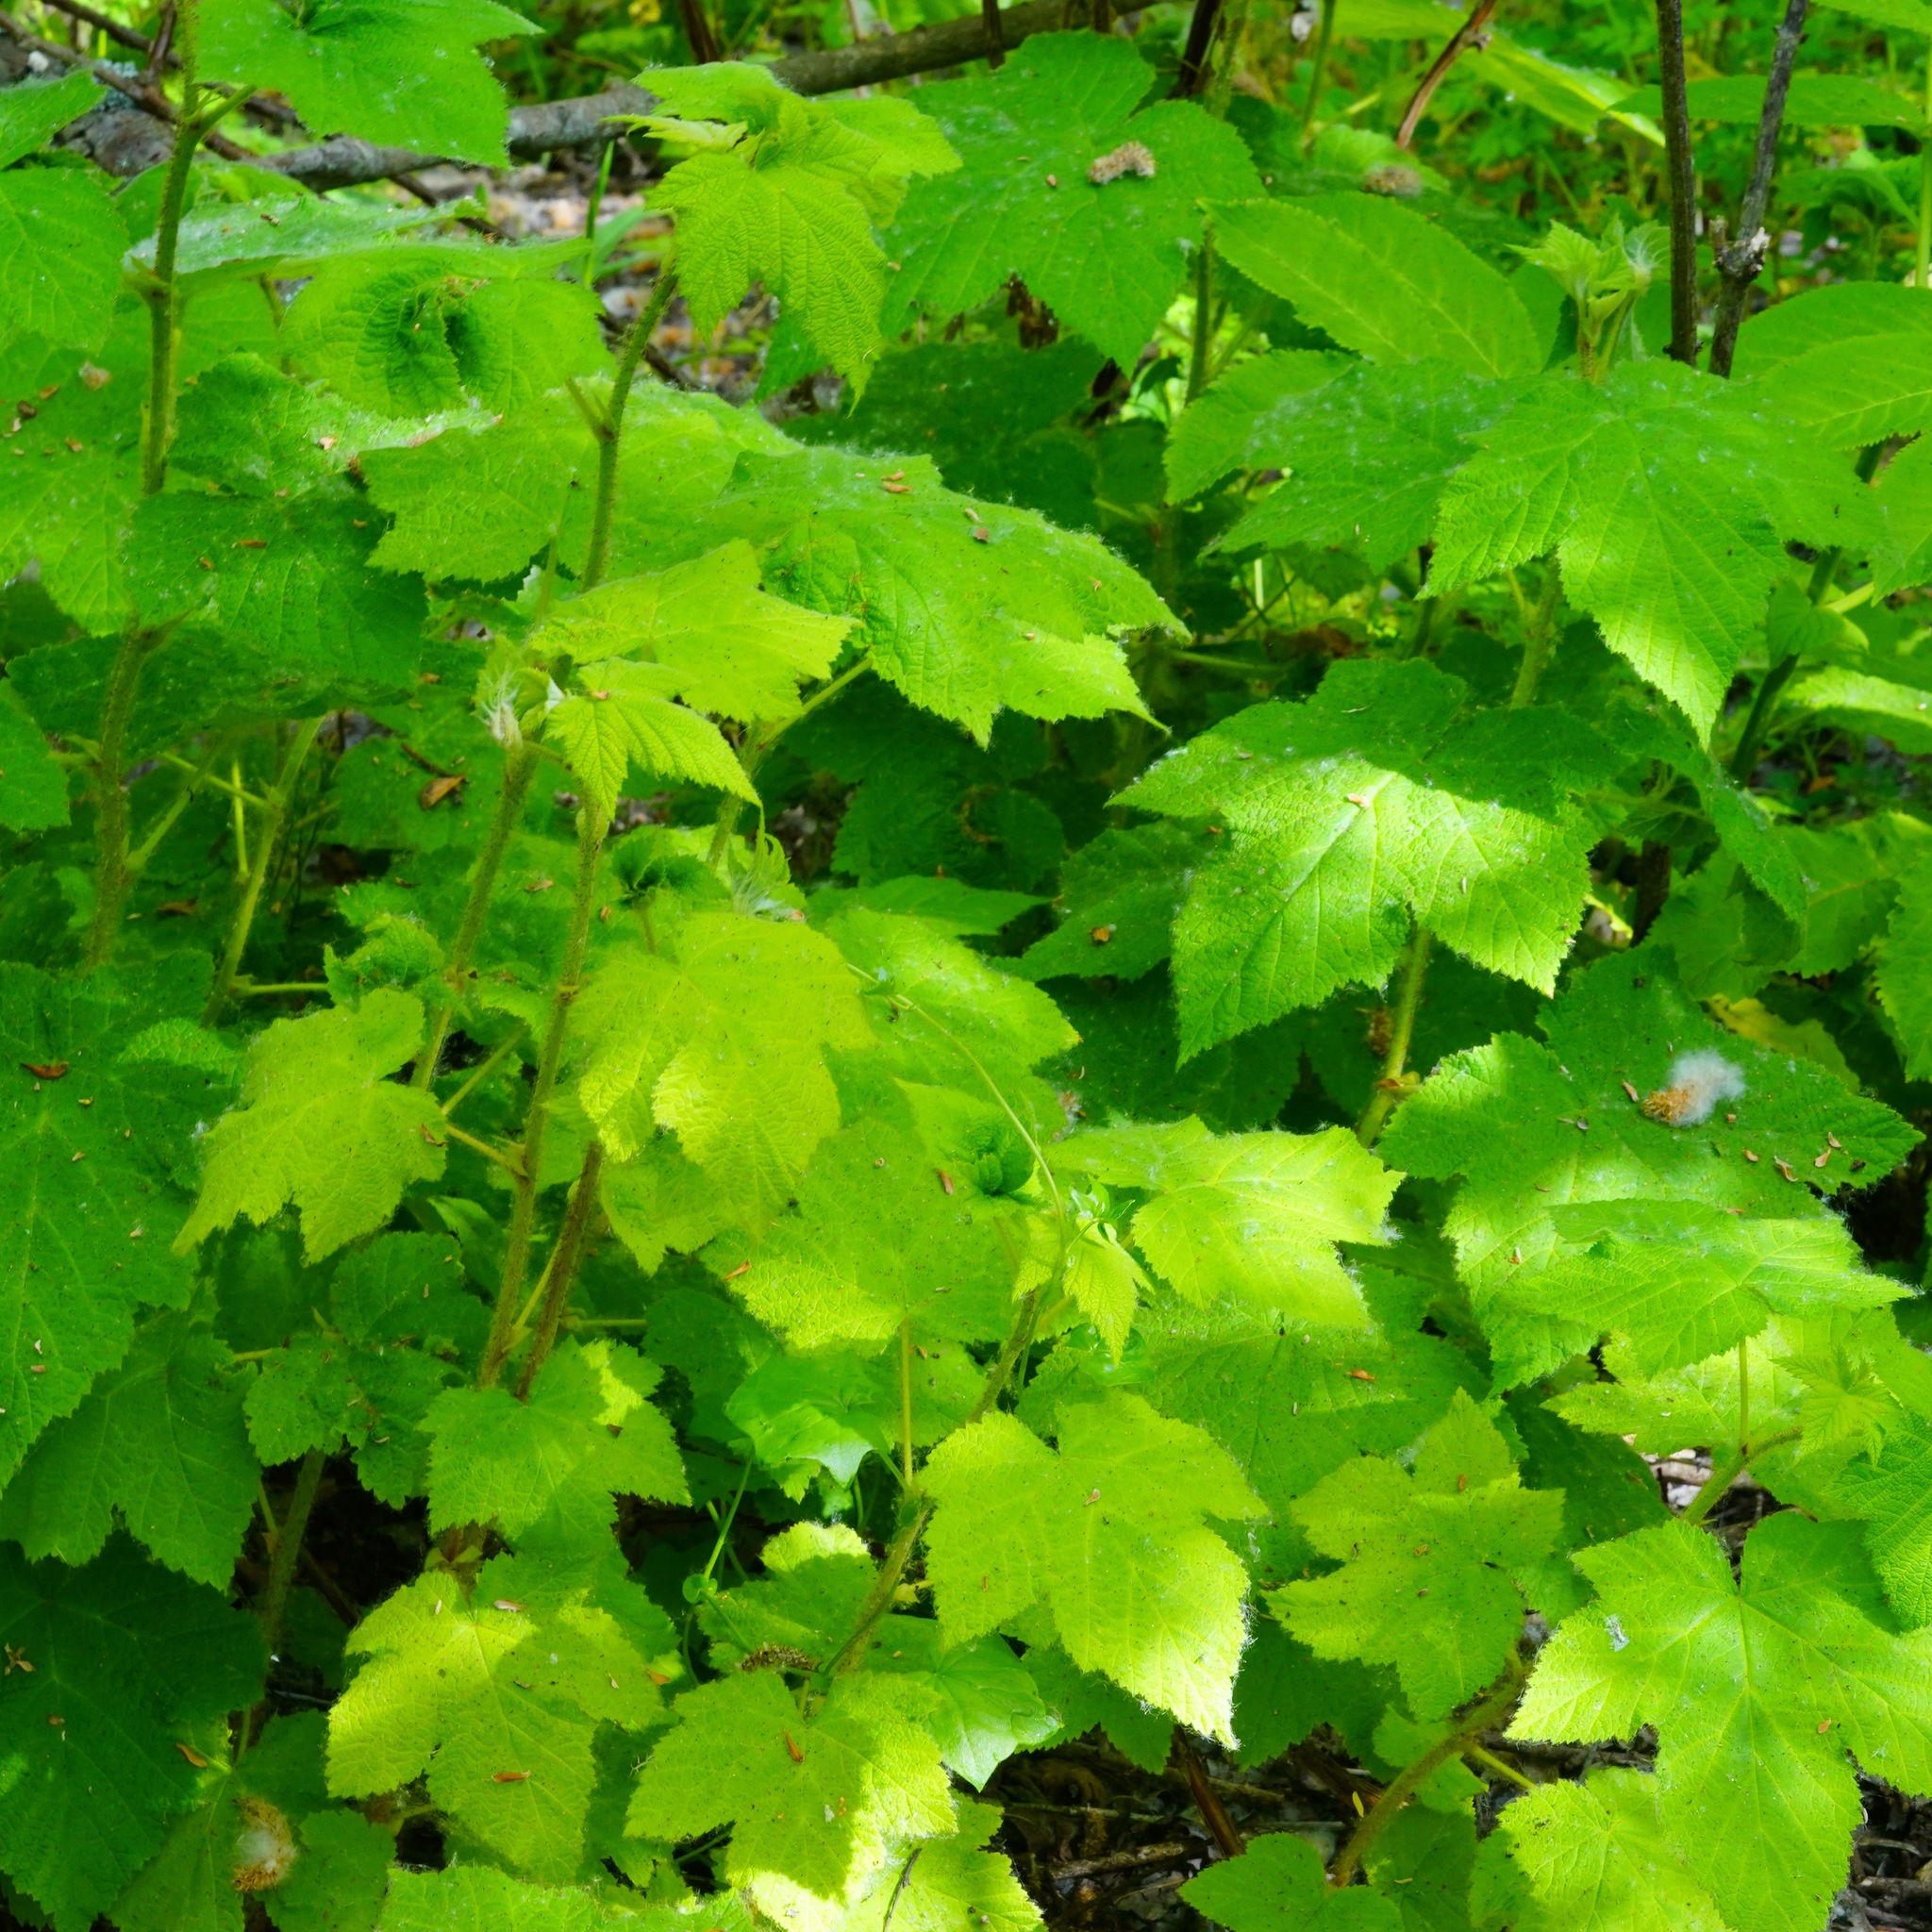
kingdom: Plantae
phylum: Tracheophyta
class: Magnoliopsida
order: Rosales
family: Rosaceae
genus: Rubus
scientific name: Rubus parviflorus
